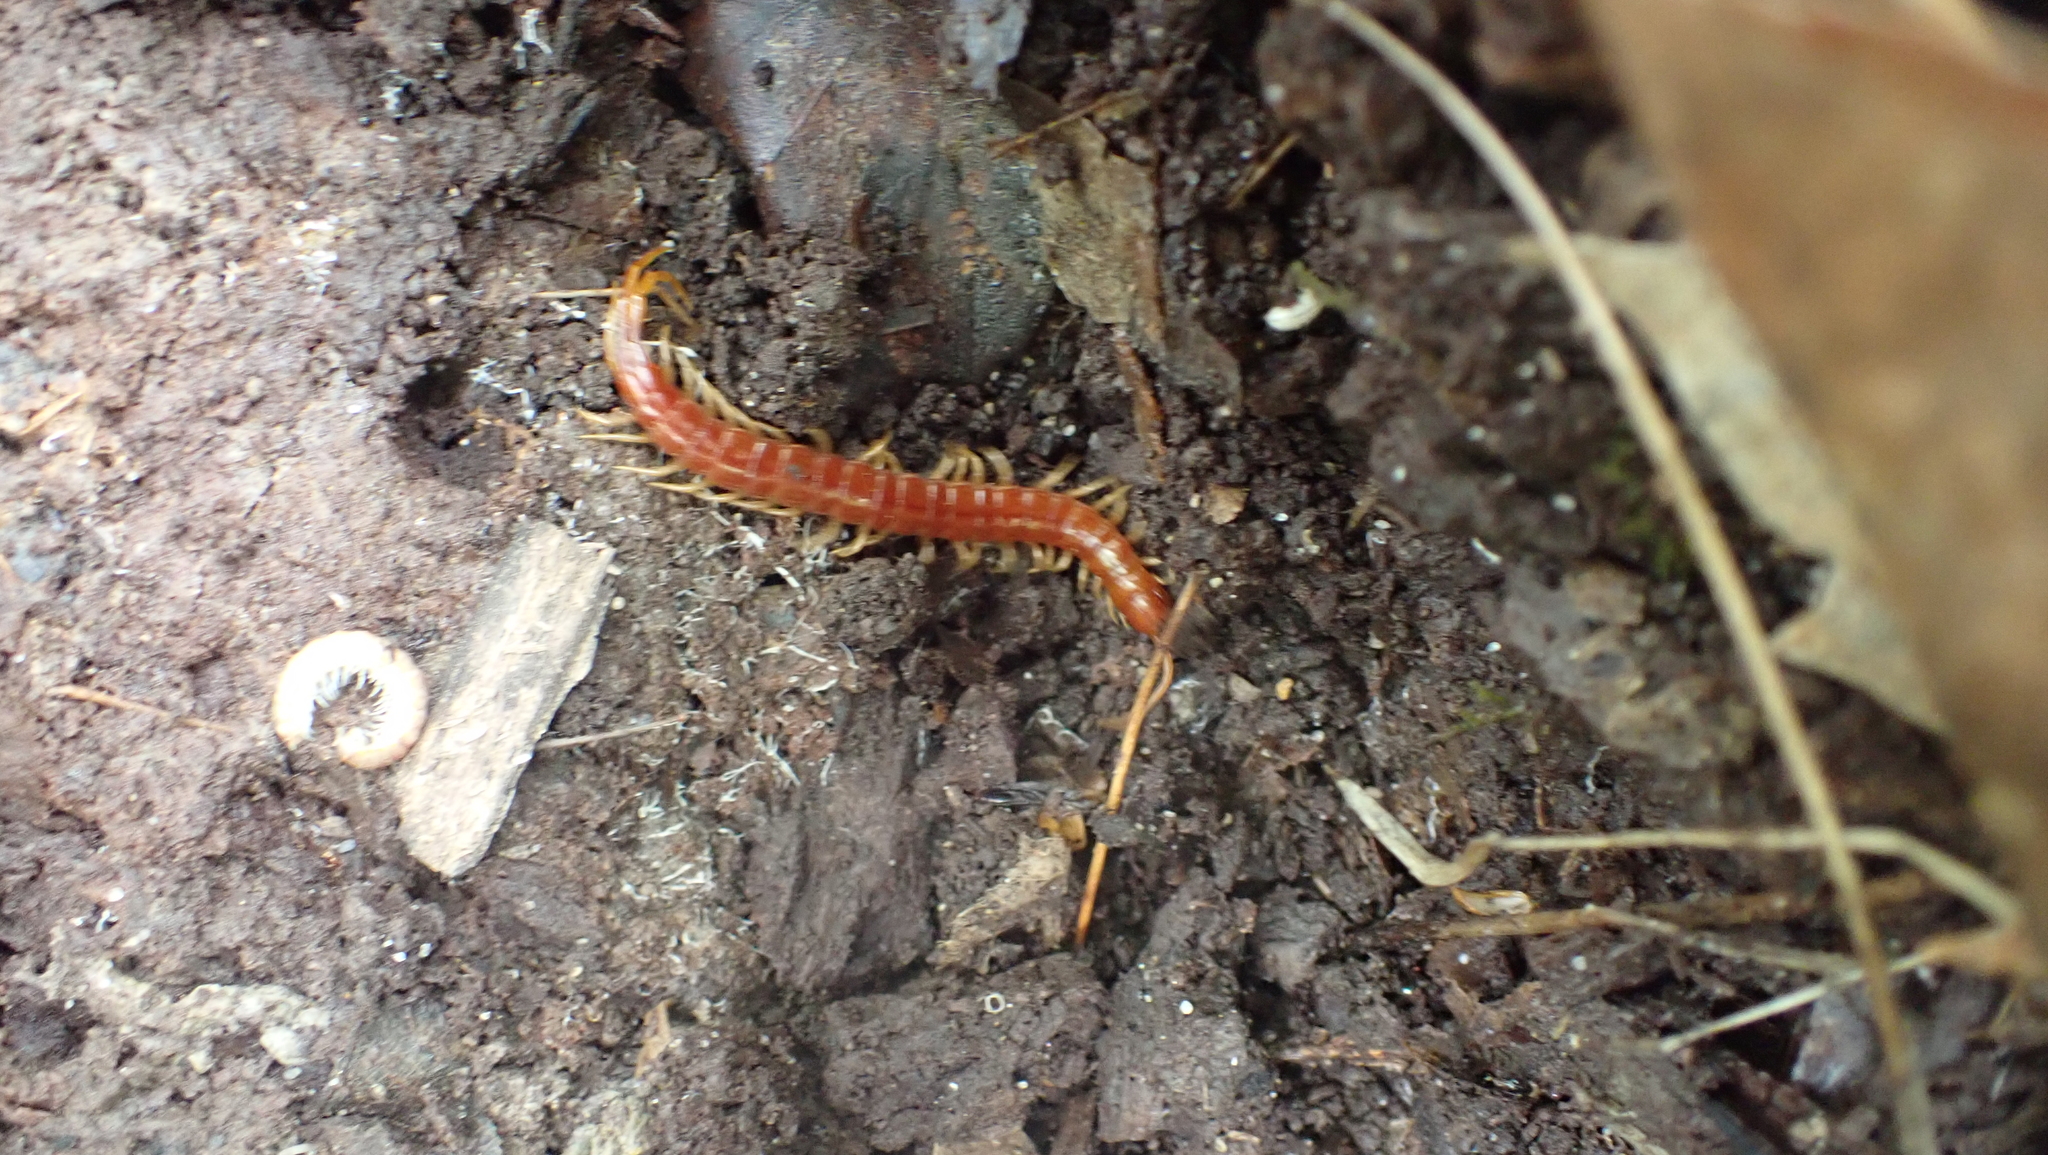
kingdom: Animalia
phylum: Arthropoda
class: Chilopoda
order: Scolopendromorpha
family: Scolopocryptopidae
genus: Scolopocryptops
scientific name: Scolopocryptops sexspinosus
